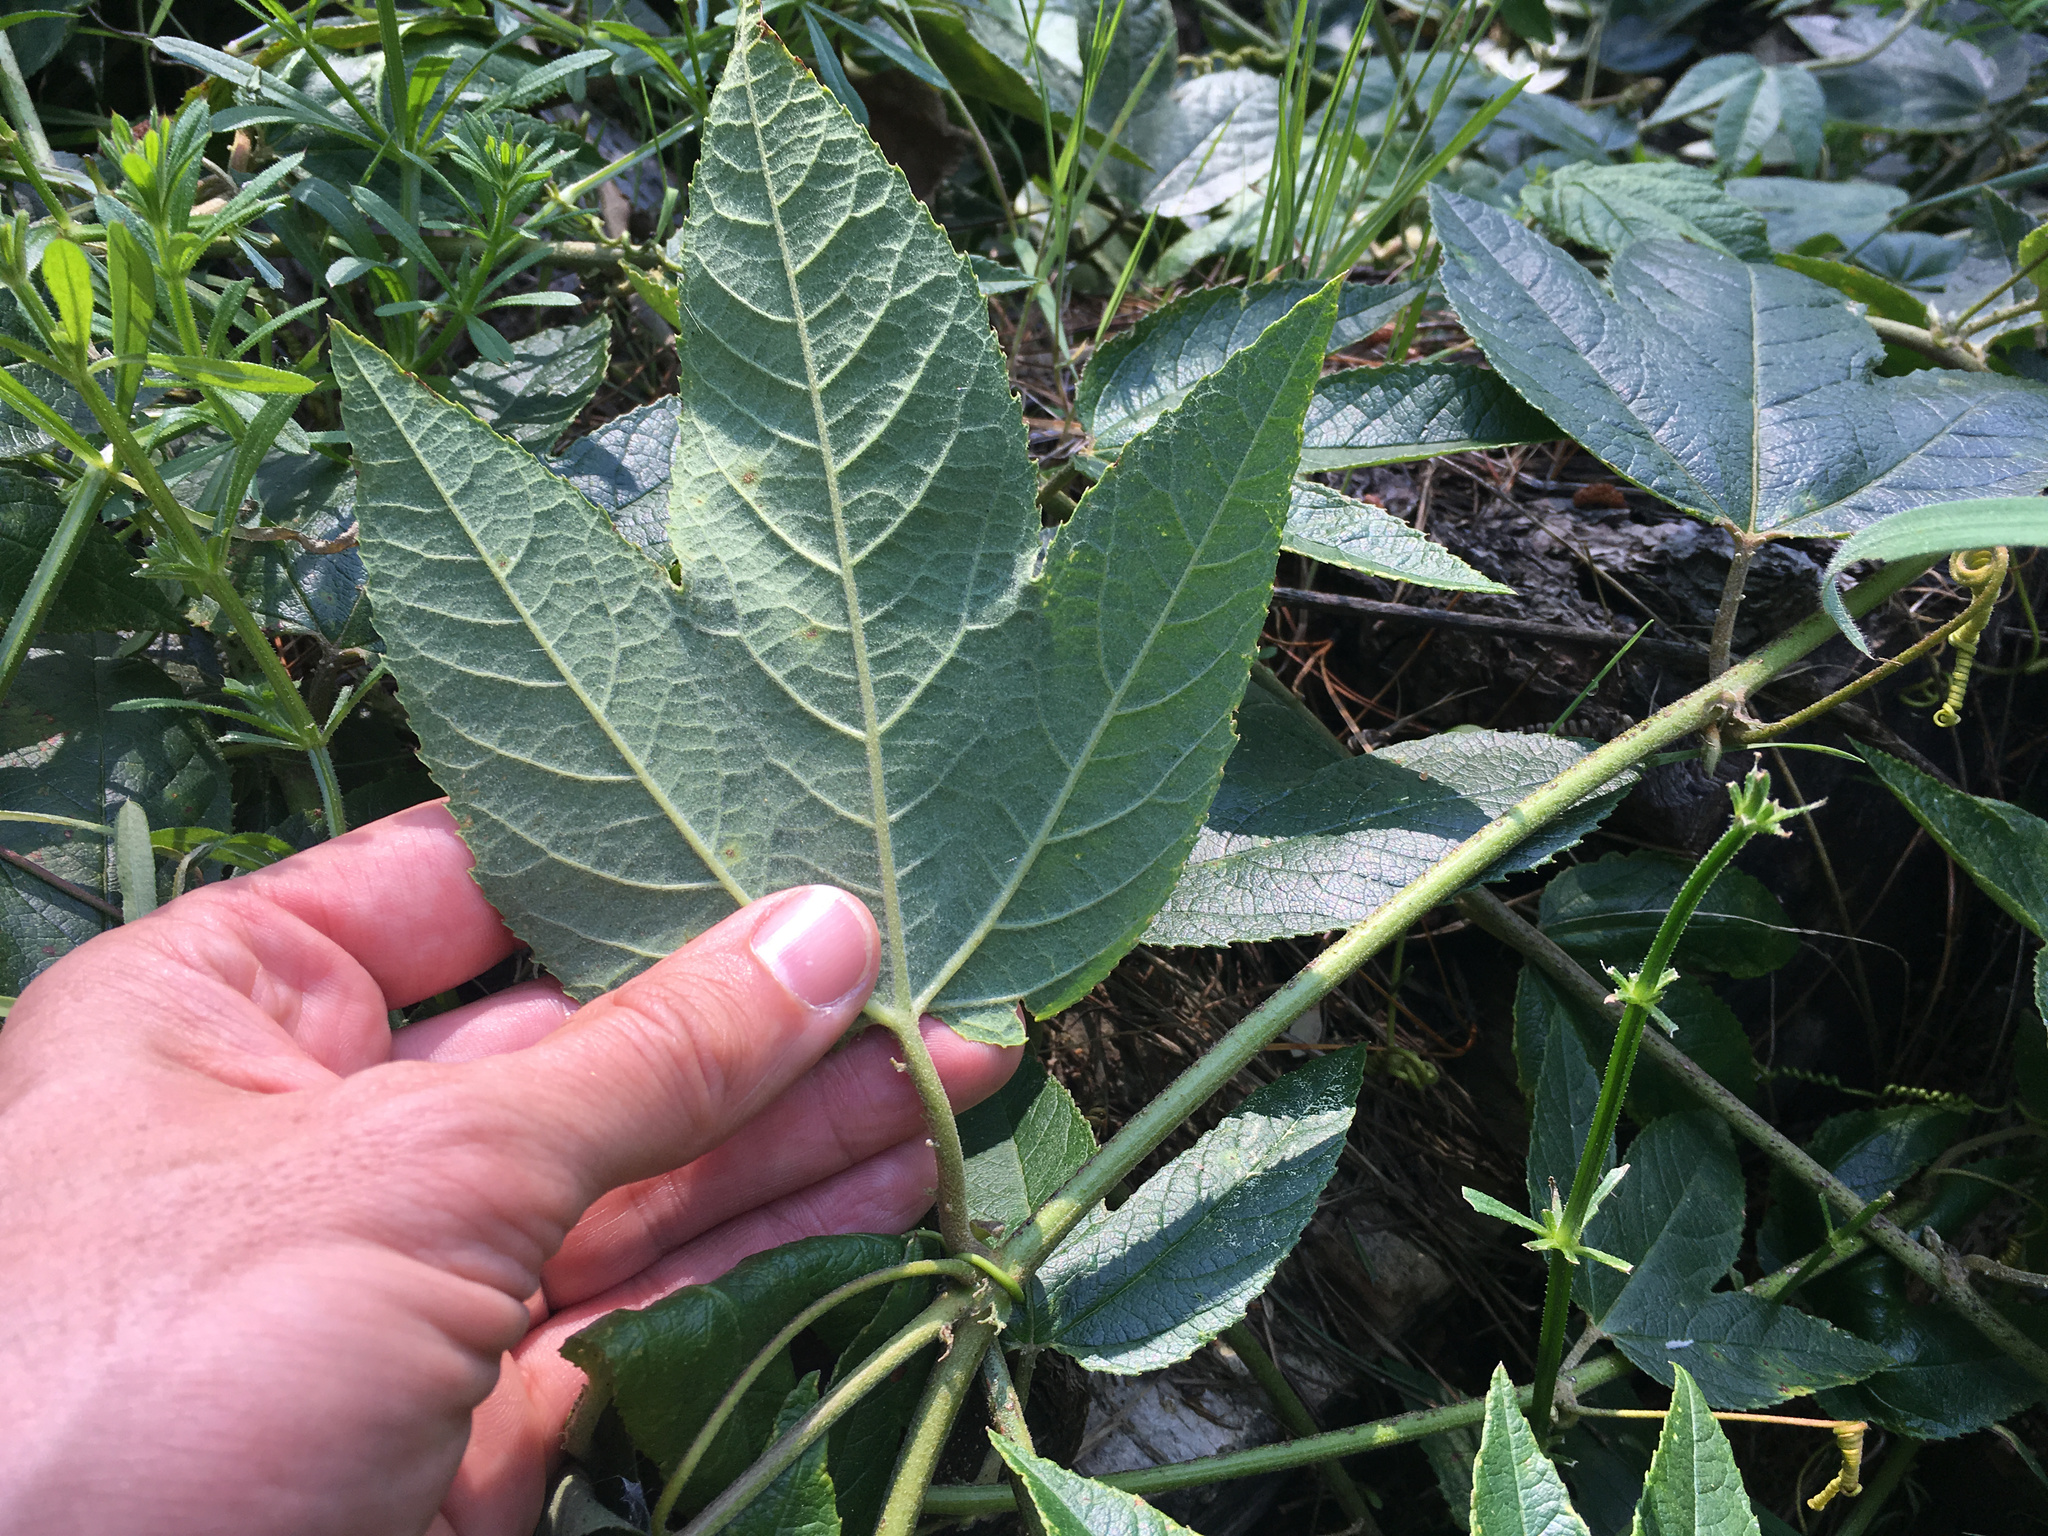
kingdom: Plantae
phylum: Tracheophyta
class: Magnoliopsida
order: Malpighiales
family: Passifloraceae
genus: Passiflora
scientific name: Passiflora tripartita
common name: Banana poka
